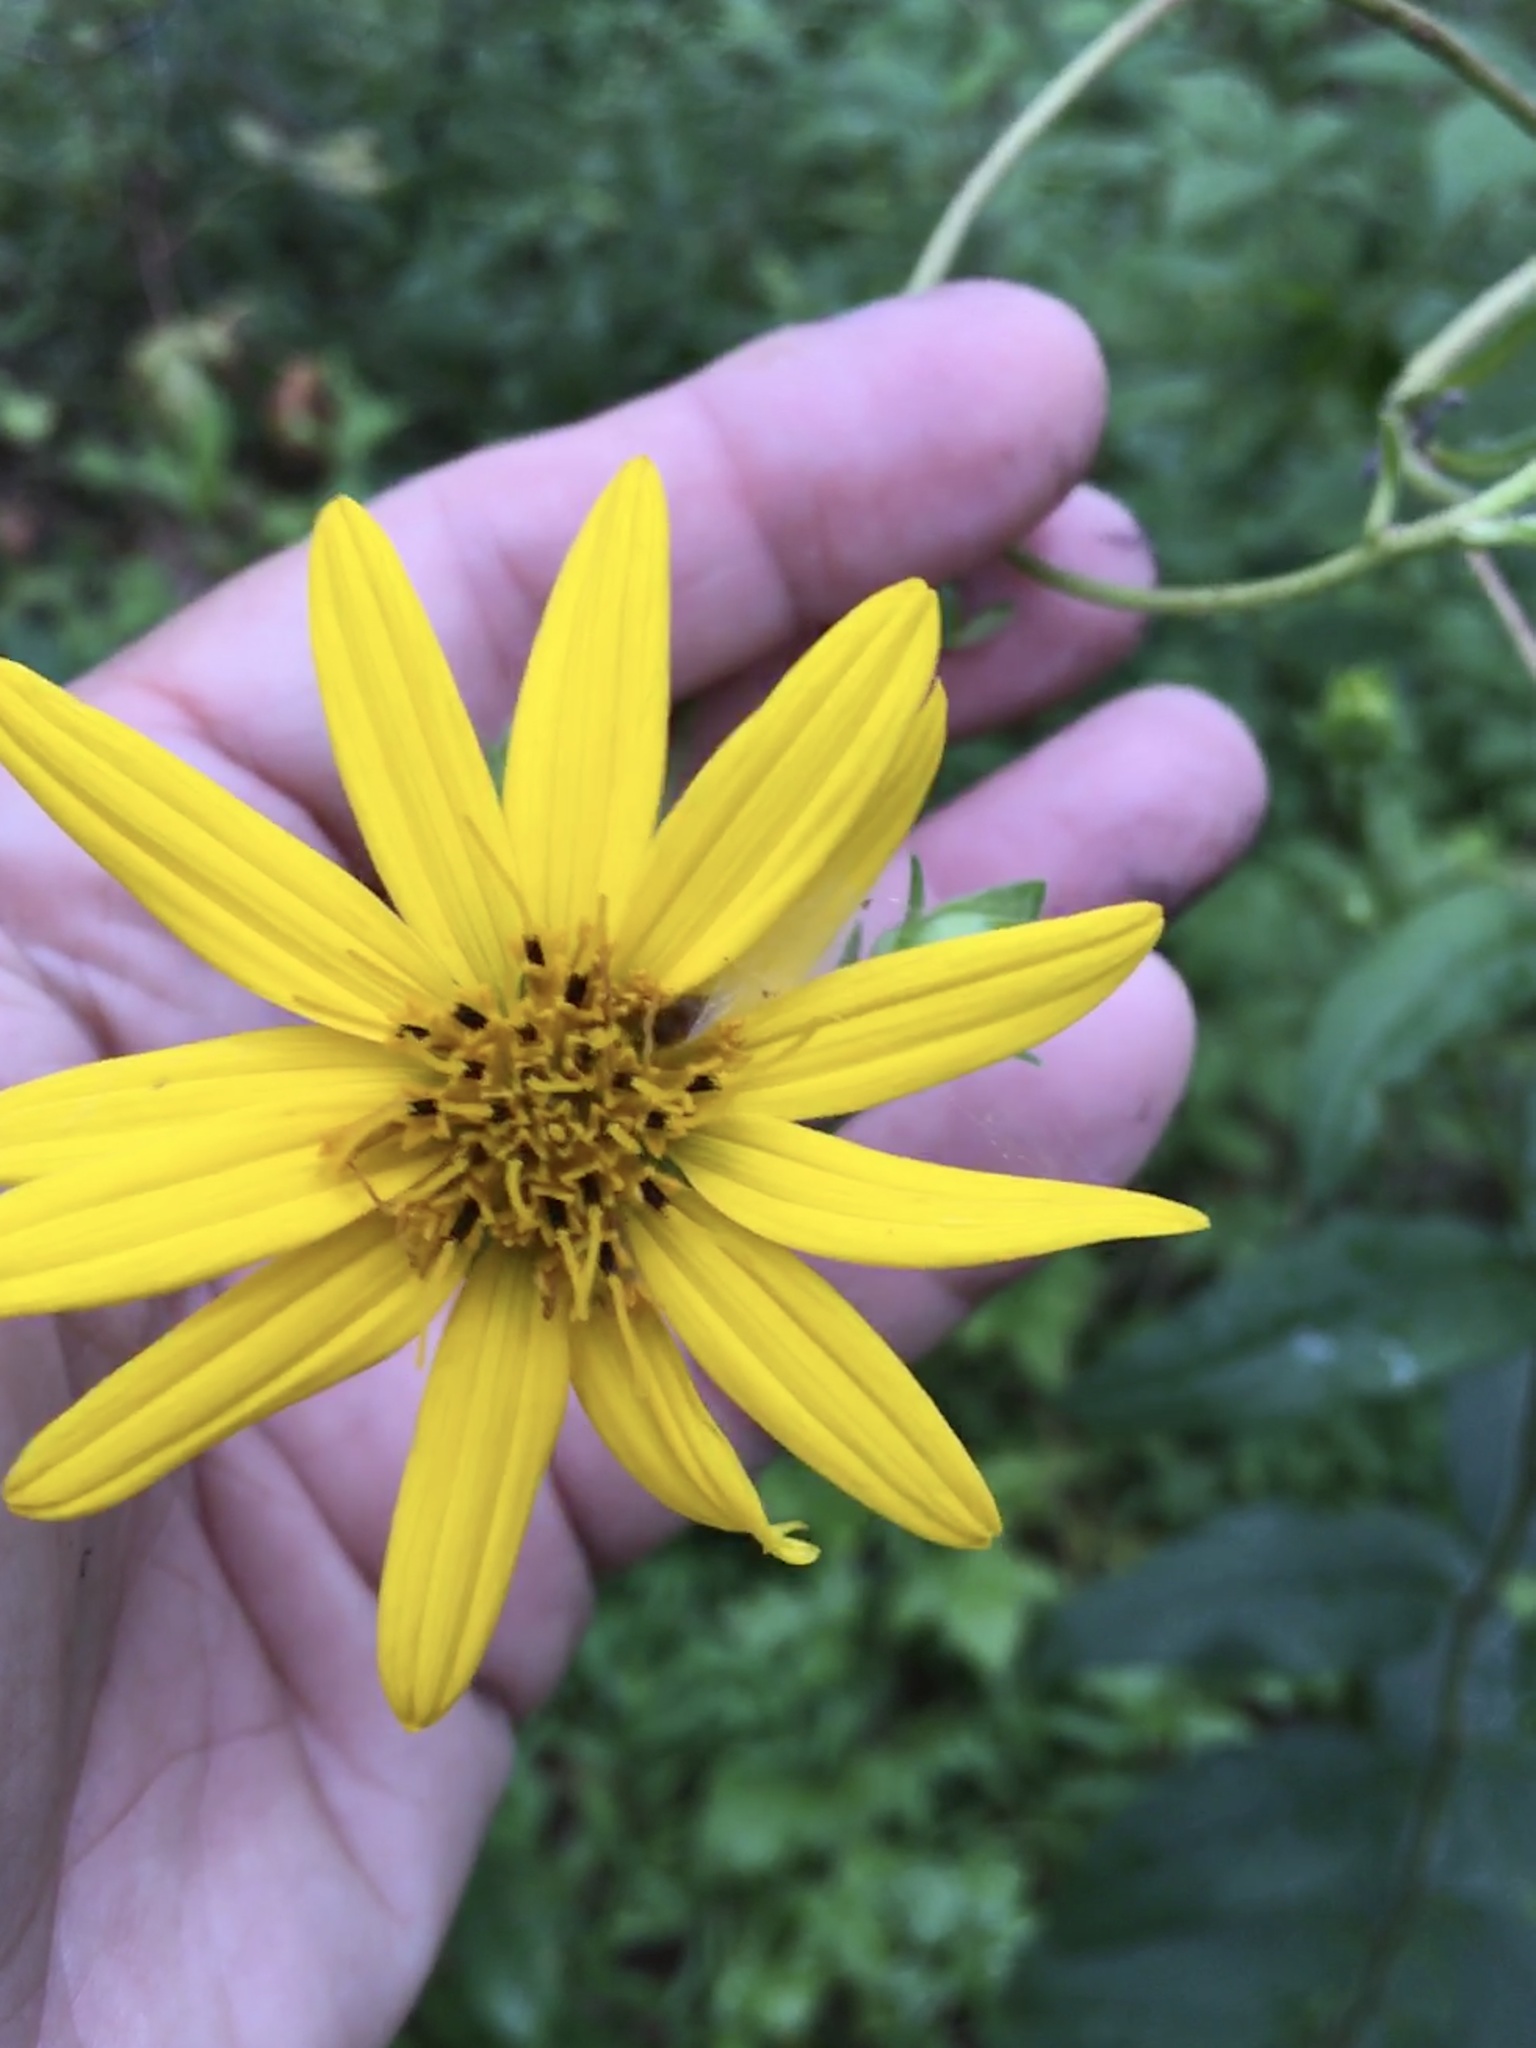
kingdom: Plantae
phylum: Tracheophyta
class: Magnoliopsida
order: Asterales
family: Asteraceae
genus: Silphium
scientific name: Silphium asteriscus
